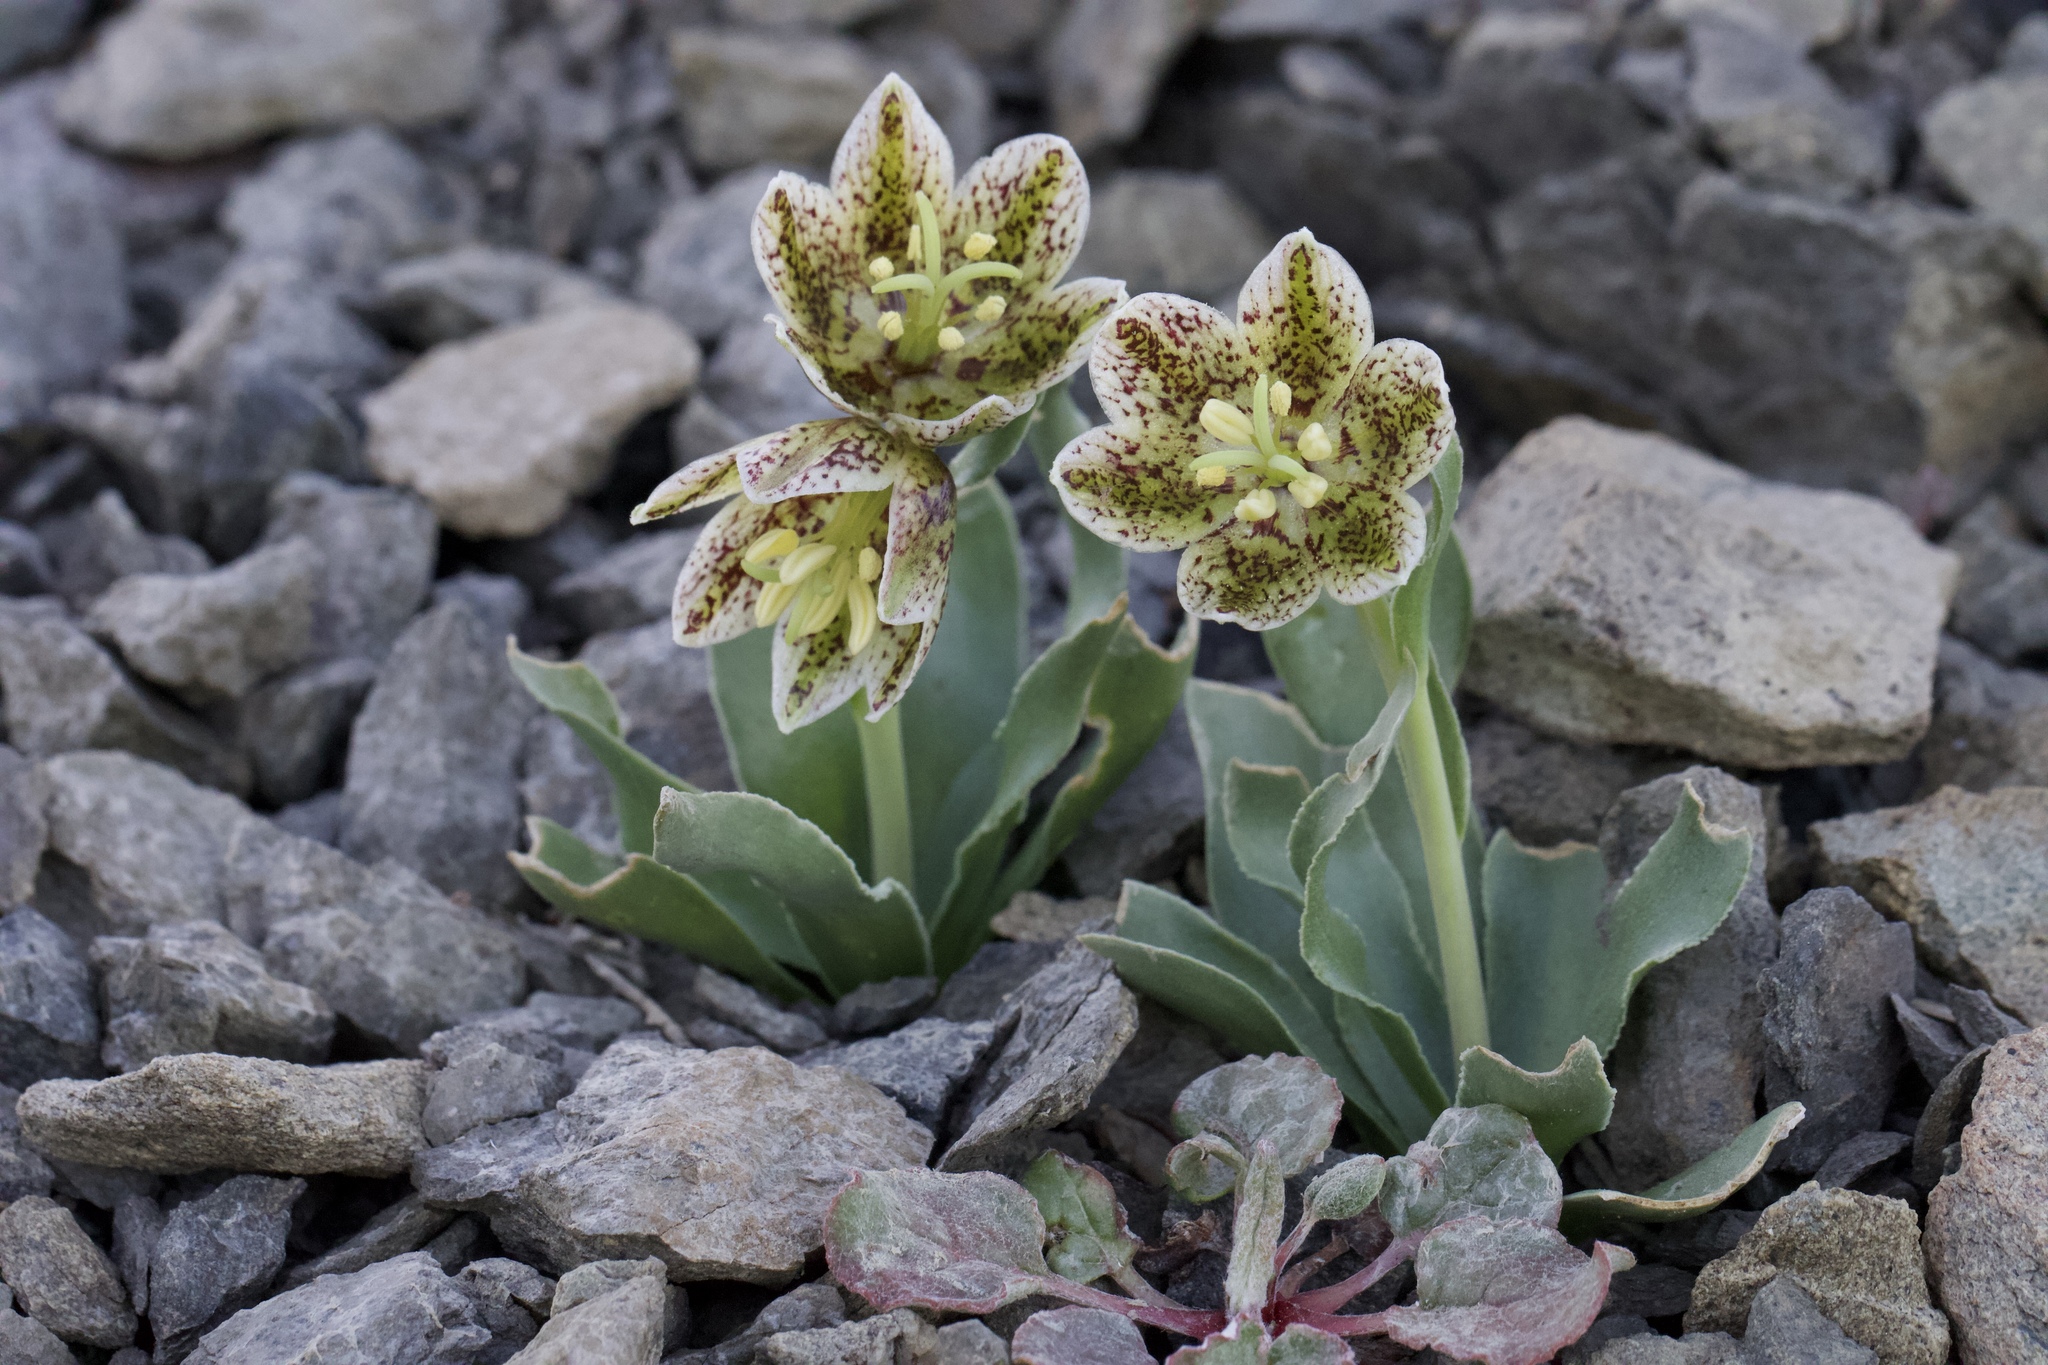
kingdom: Plantae
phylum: Tracheophyta
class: Liliopsida
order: Liliales
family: Liliaceae
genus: Fritillaria
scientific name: Fritillaria purdyi
